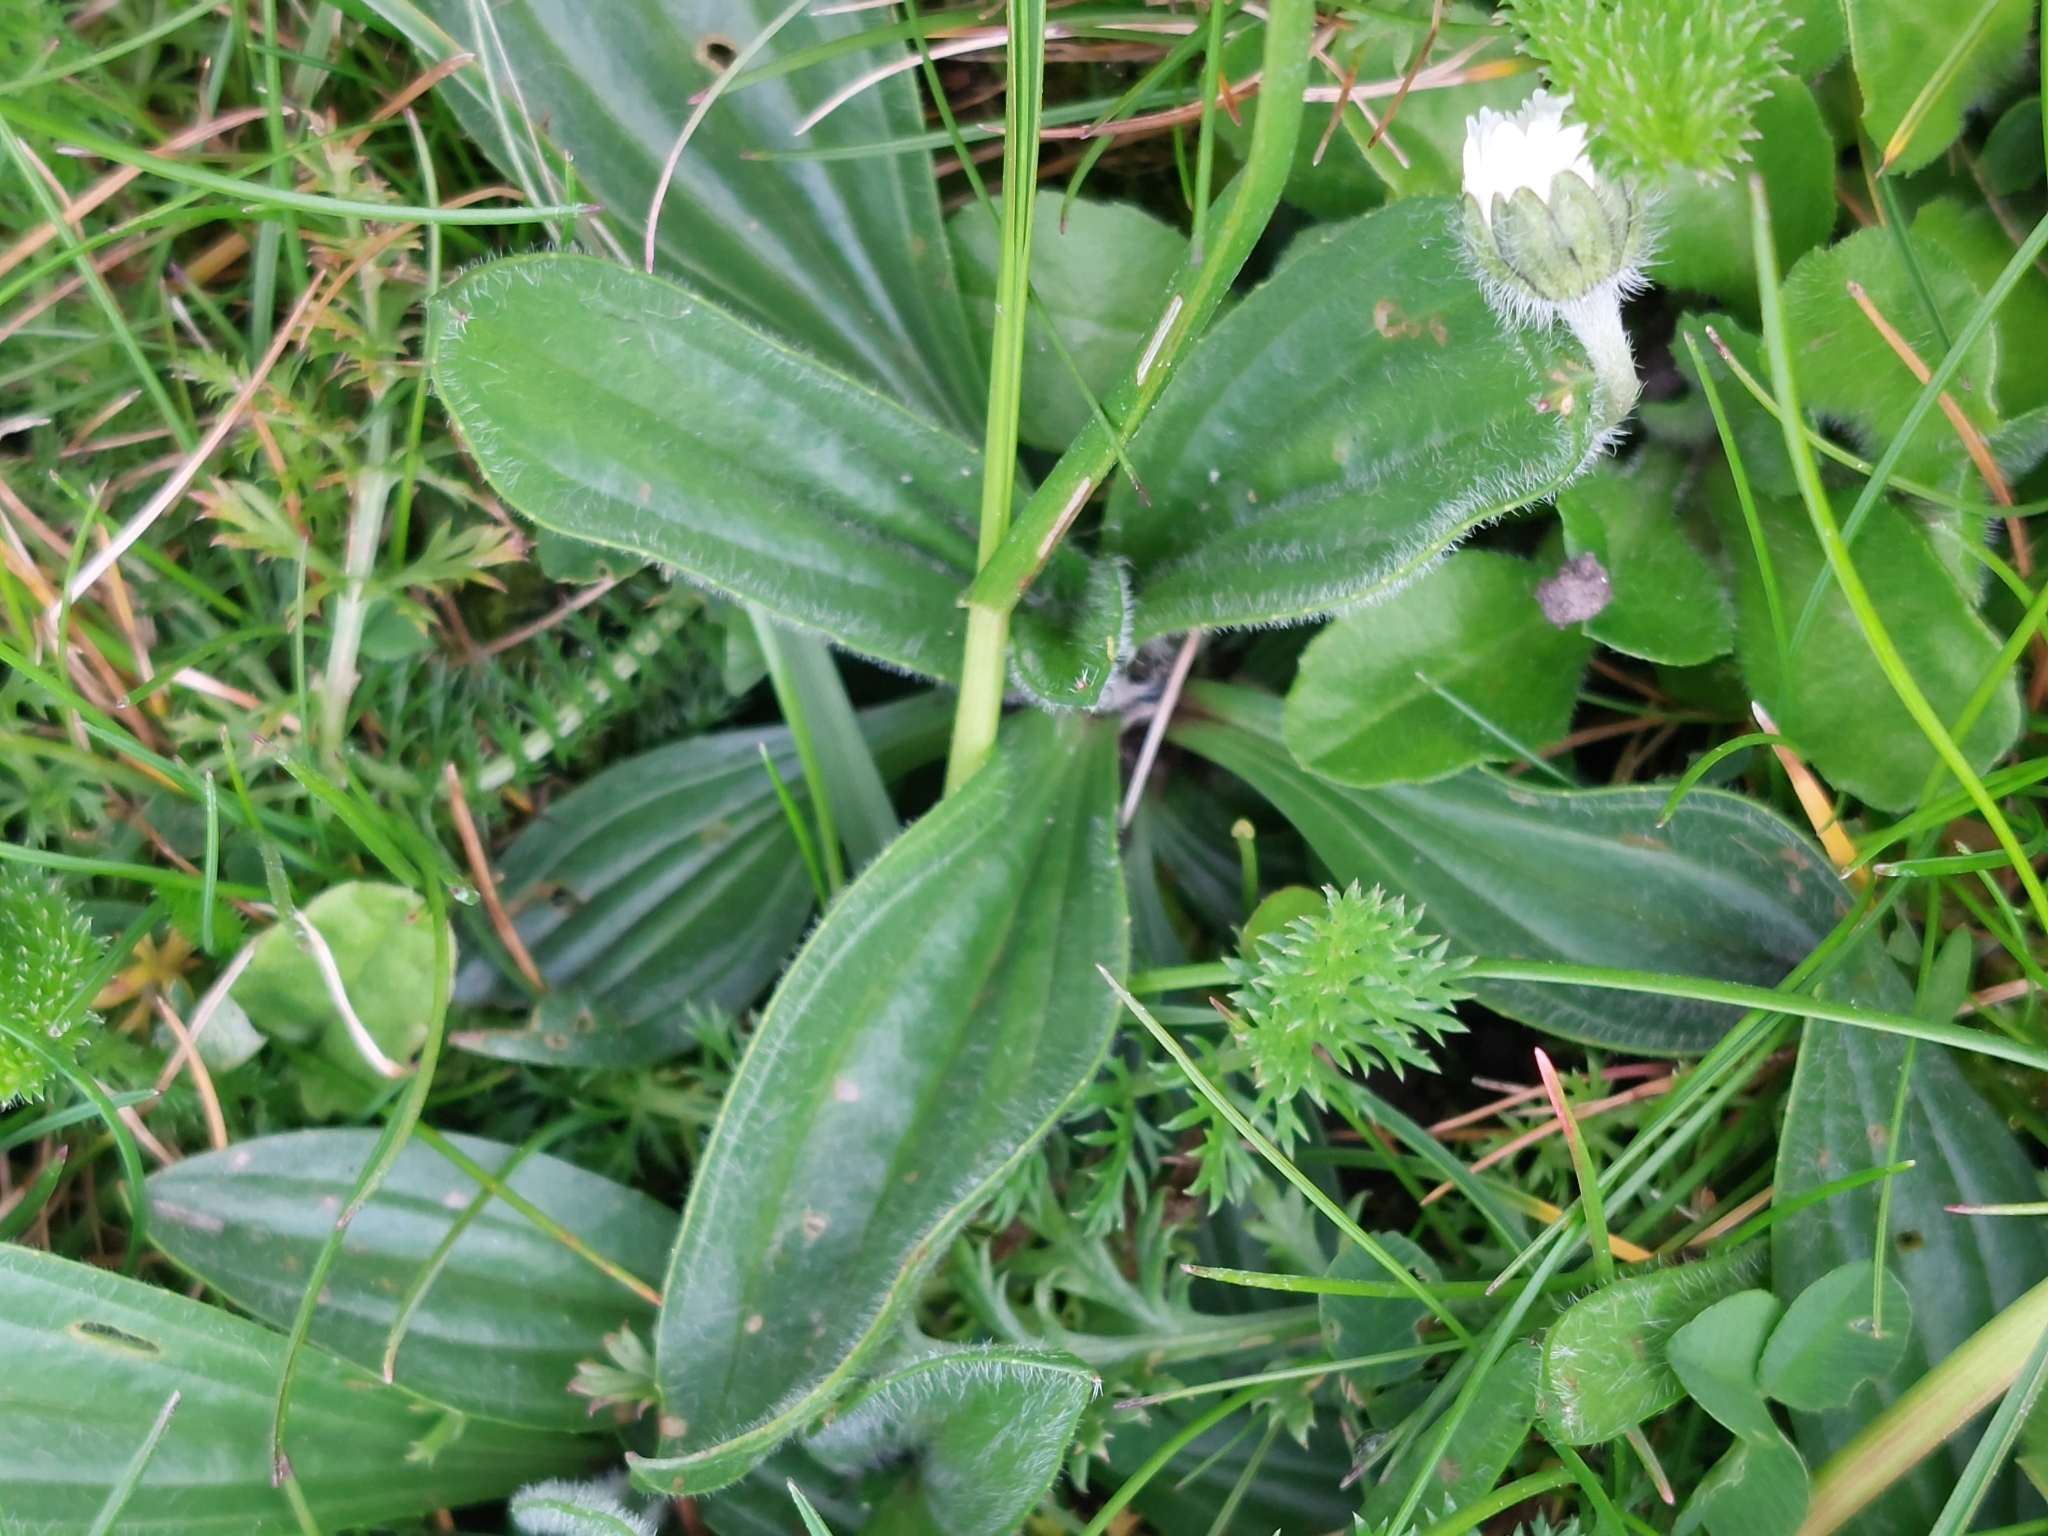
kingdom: Plantae
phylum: Tracheophyta
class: Magnoliopsida
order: Lamiales
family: Plantaginaceae
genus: Plantago
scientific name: Plantago lanceolata
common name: Ribwort plantain
